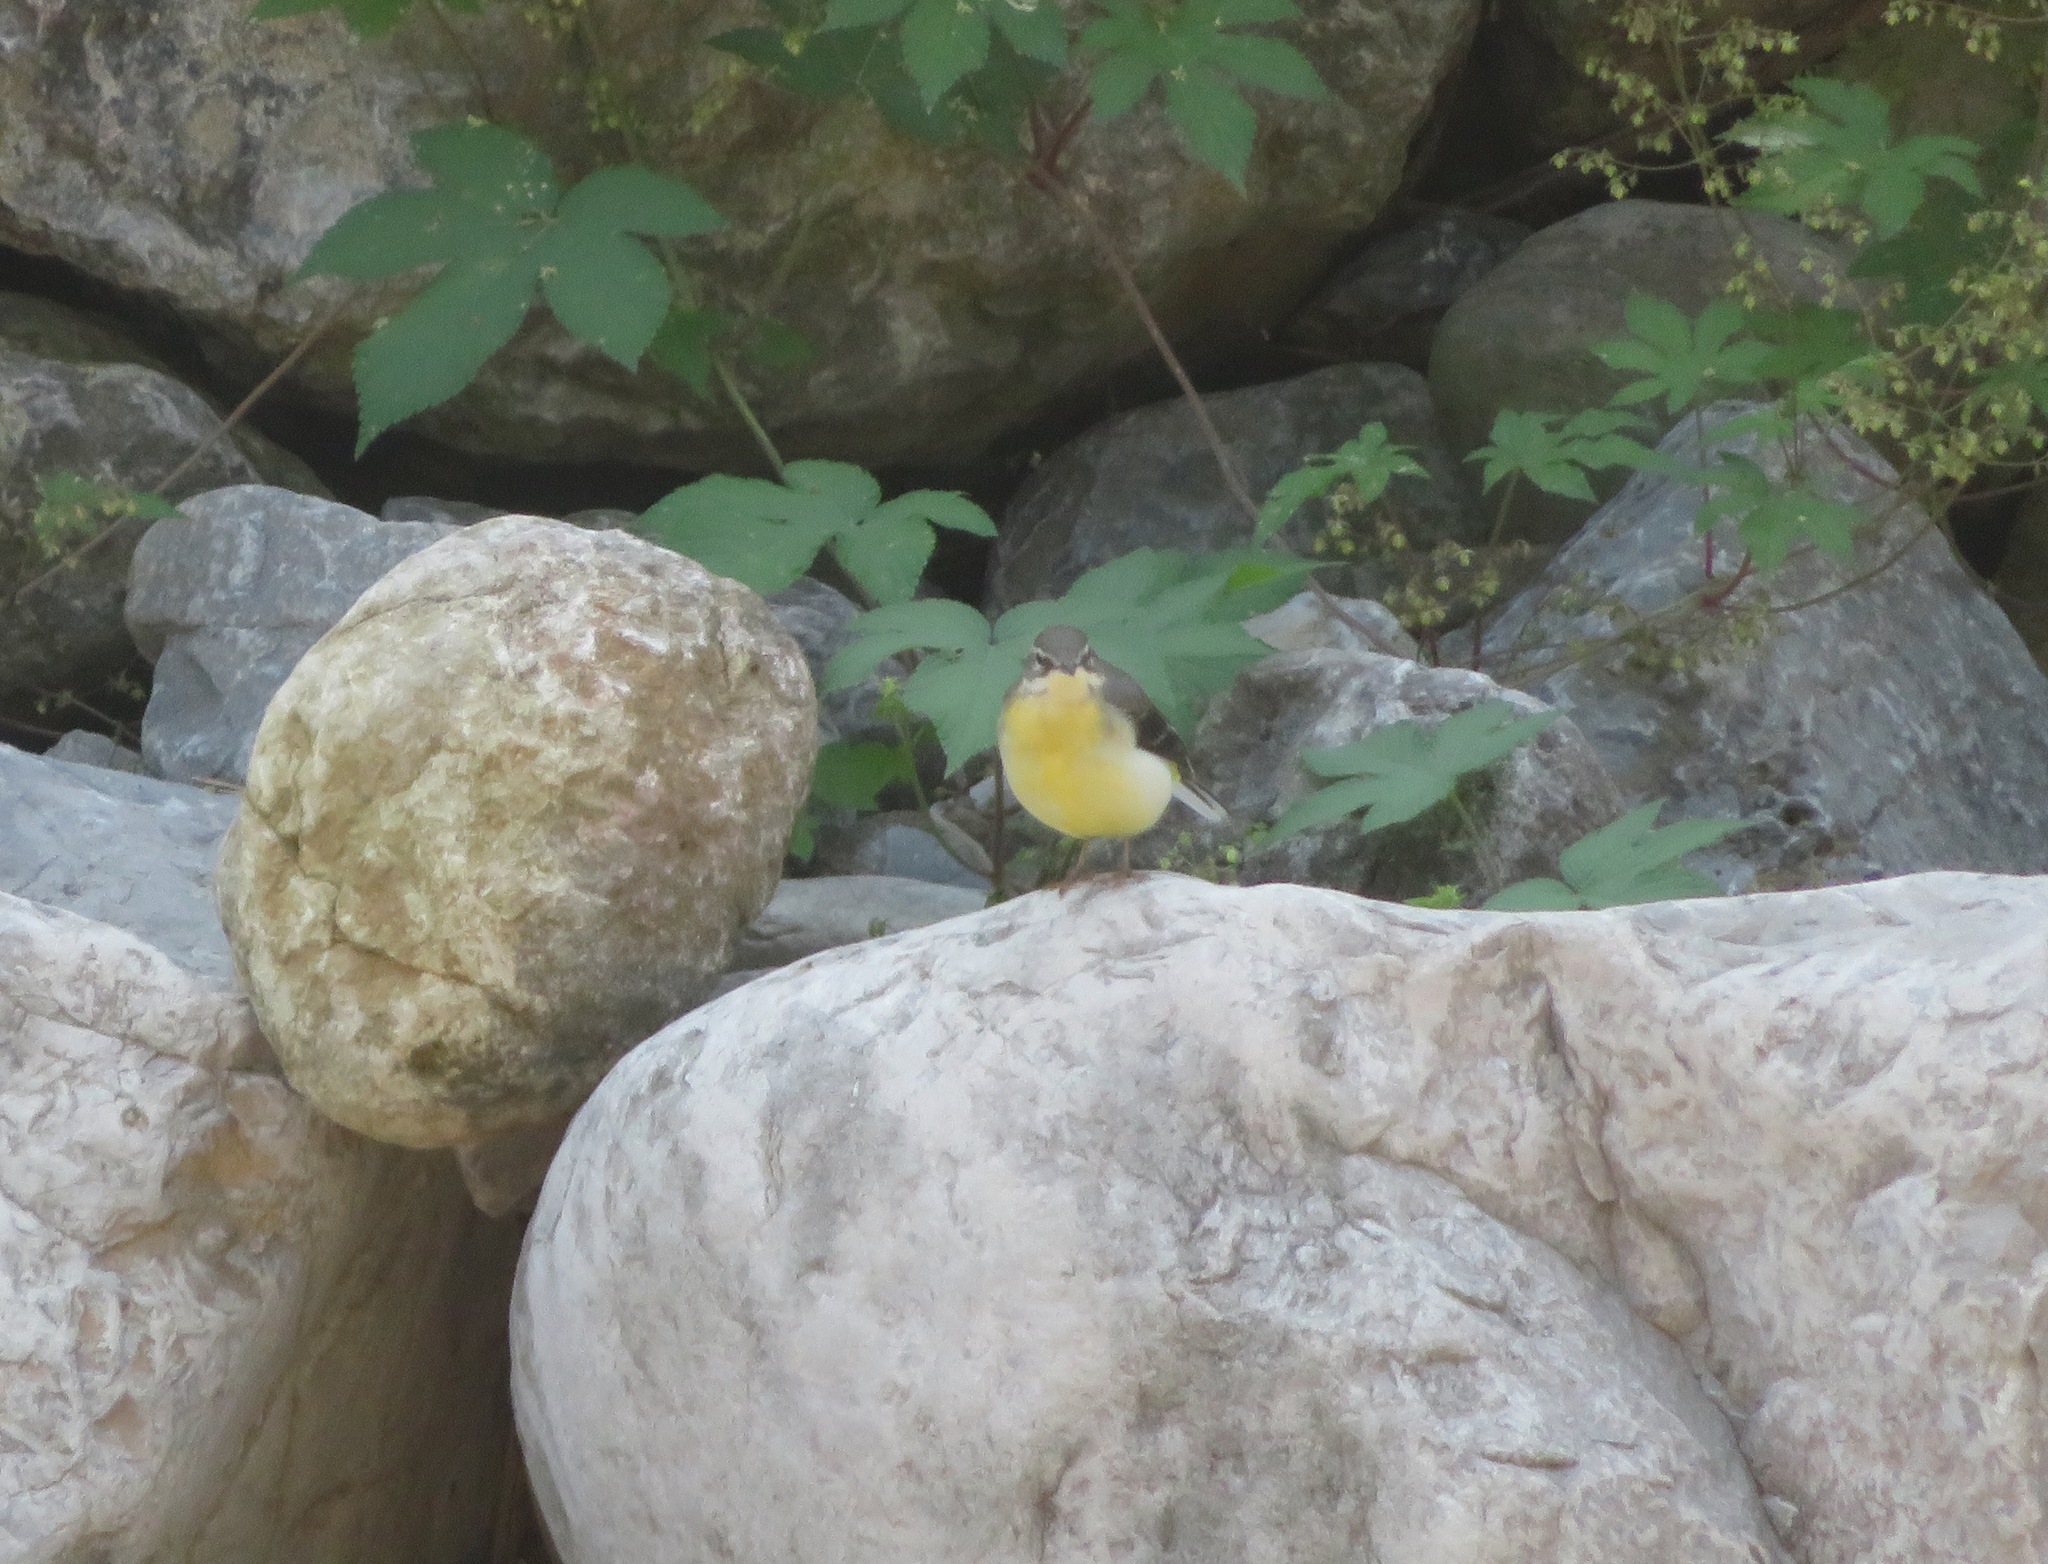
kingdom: Animalia
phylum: Chordata
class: Aves
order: Passeriformes
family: Motacillidae
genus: Motacilla
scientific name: Motacilla cinerea
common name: Grey wagtail
